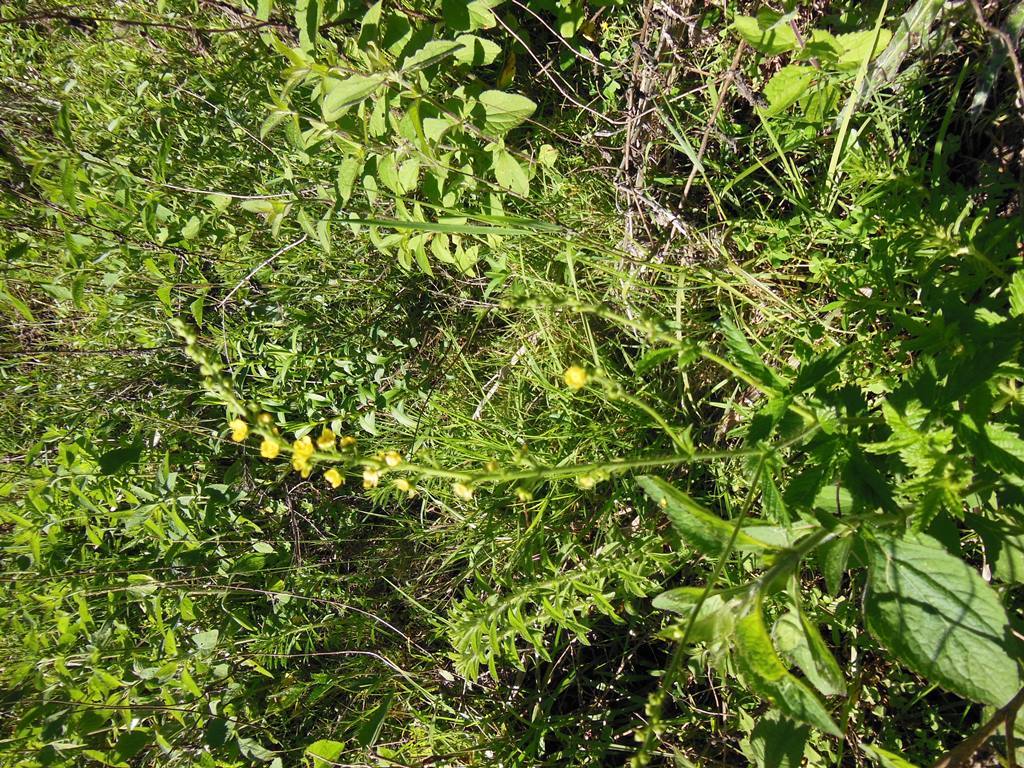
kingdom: Plantae
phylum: Tracheophyta
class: Magnoliopsida
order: Rosales
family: Rosaceae
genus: Agrimonia
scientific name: Agrimonia gryposepala
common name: Common agrimony
